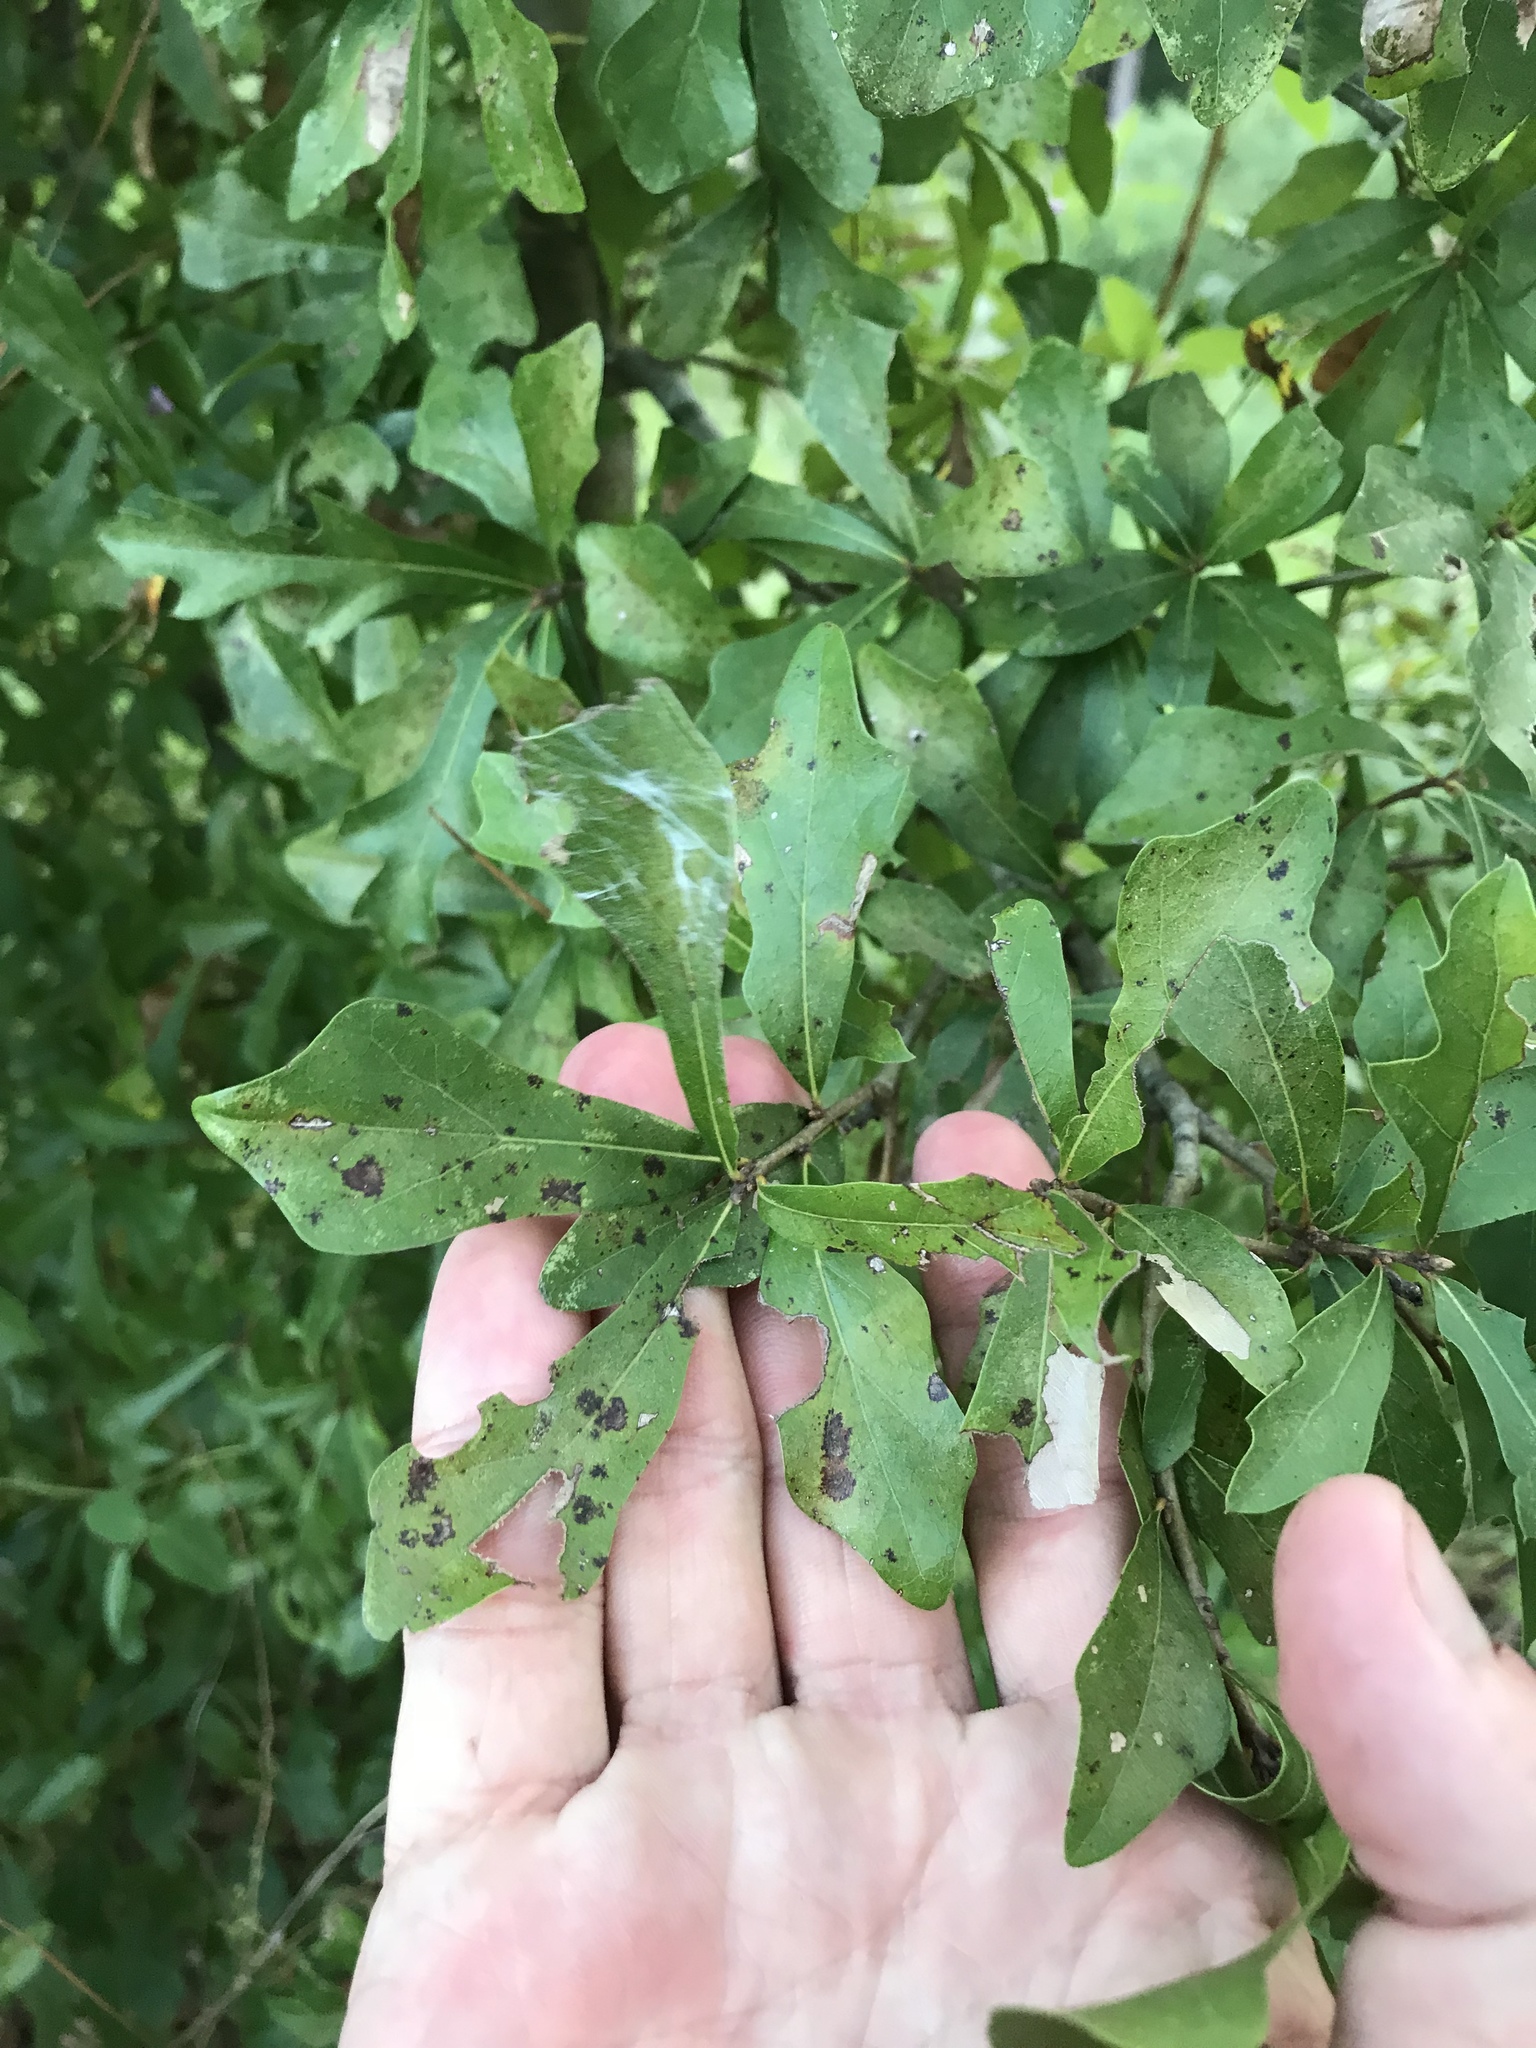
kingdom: Plantae
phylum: Tracheophyta
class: Magnoliopsida
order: Fagales
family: Fagaceae
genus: Quercus
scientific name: Quercus nigra
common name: Water oak
